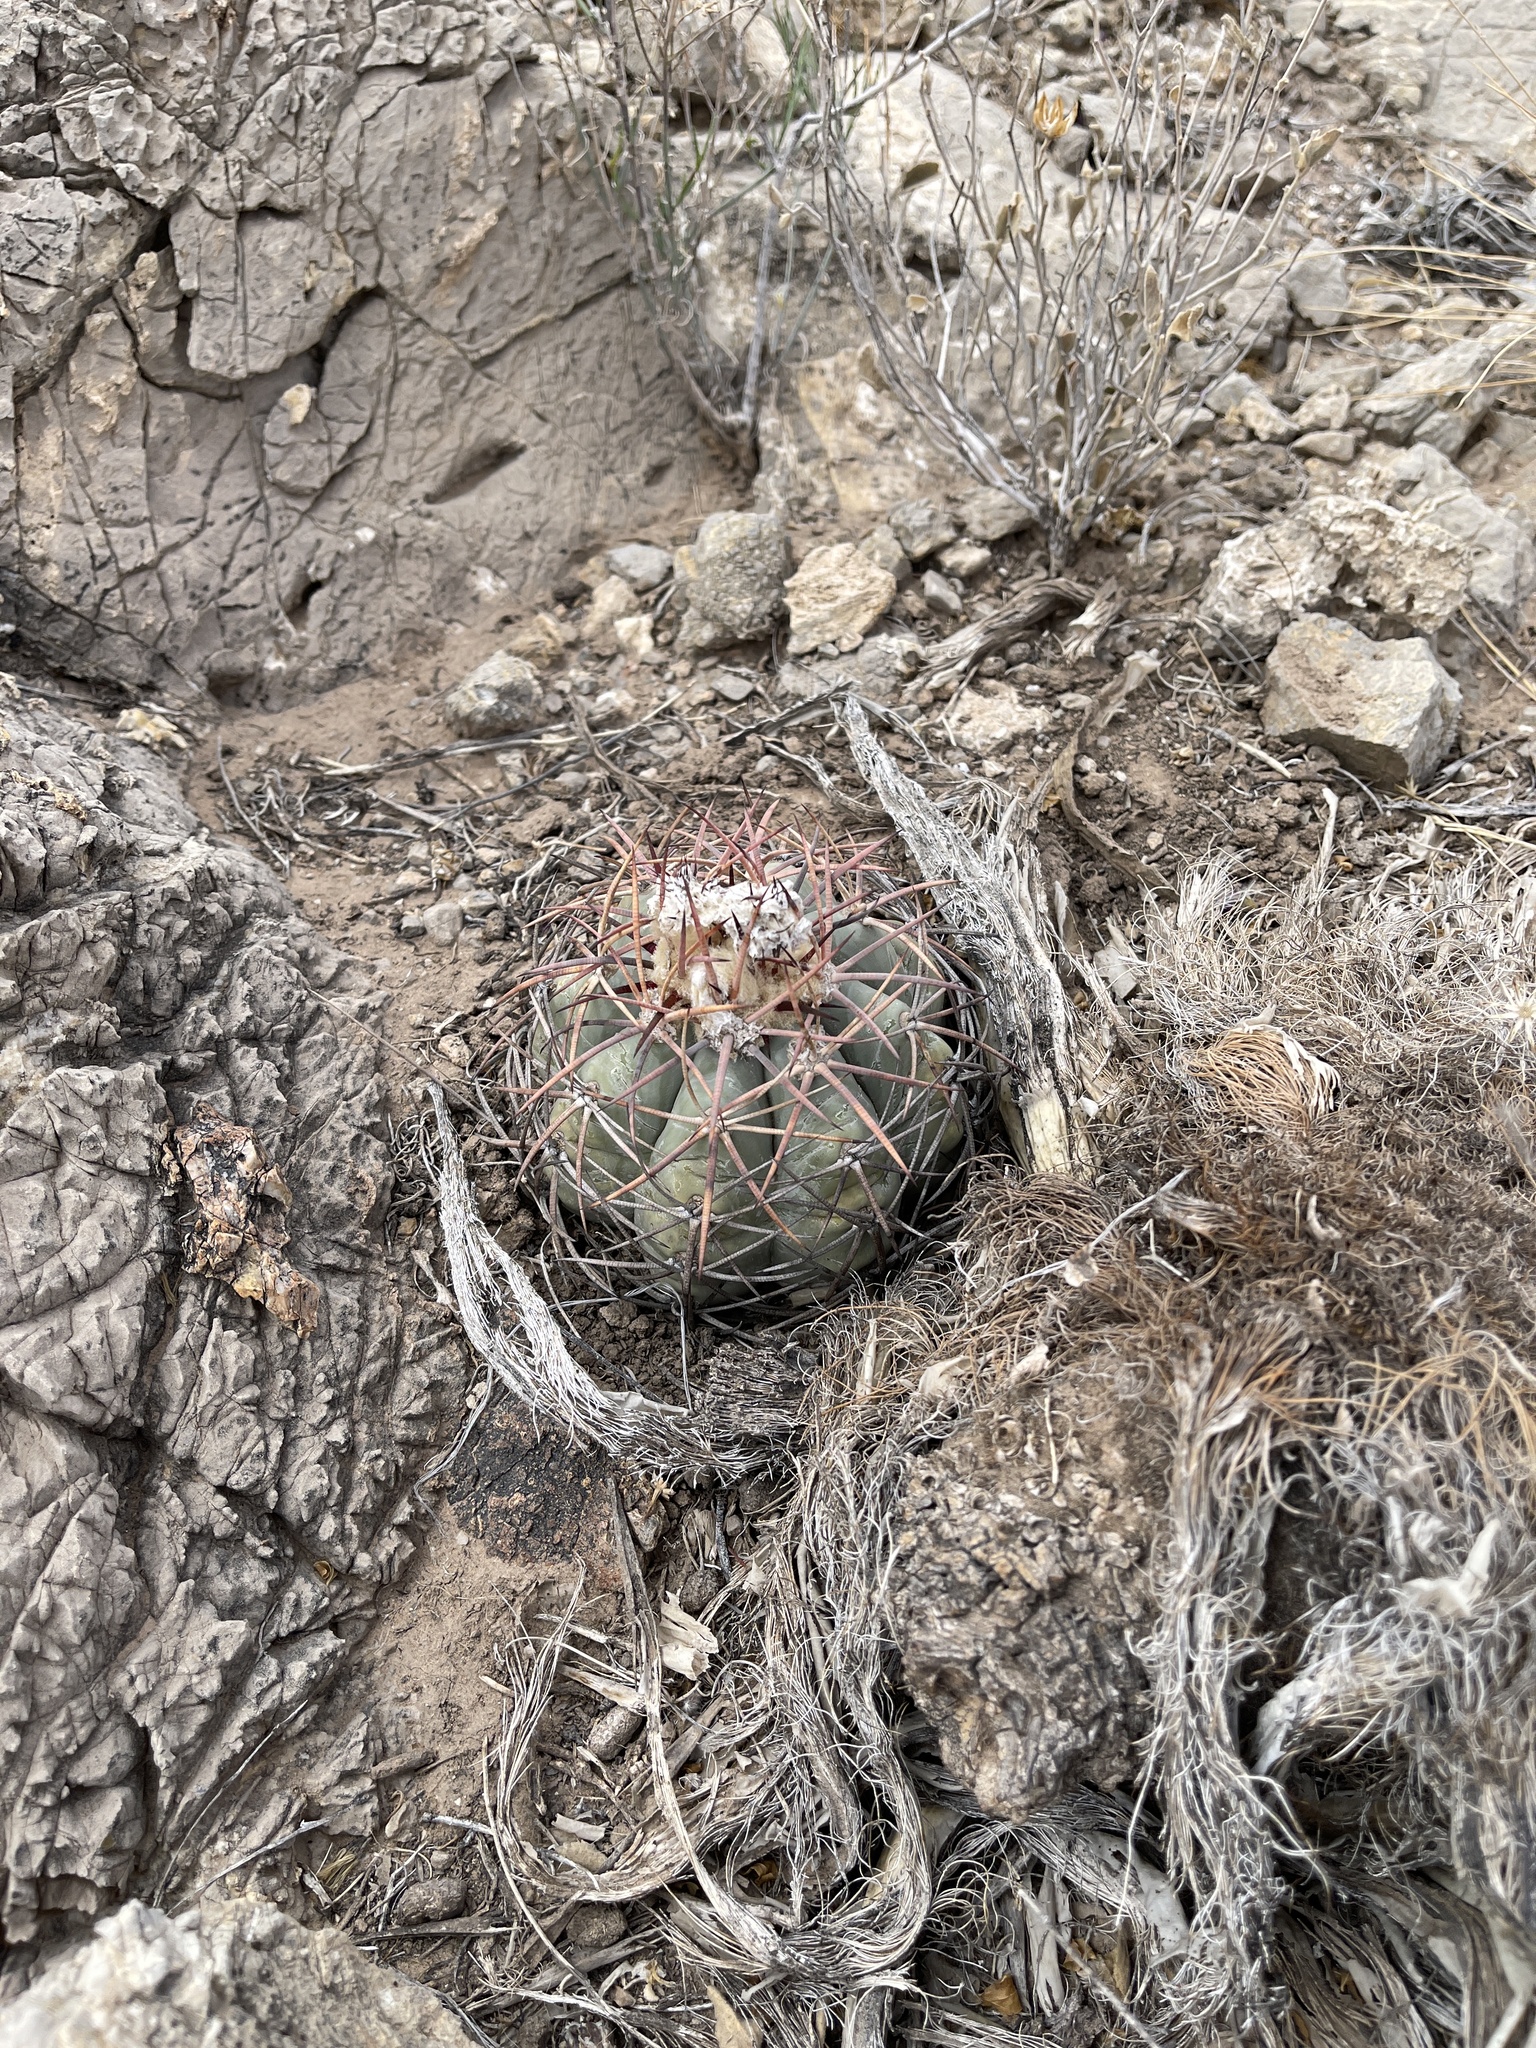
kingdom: Plantae
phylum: Tracheophyta
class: Magnoliopsida
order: Caryophyllales
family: Cactaceae
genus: Echinocactus
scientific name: Echinocactus horizonthalonius
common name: Devilshead
